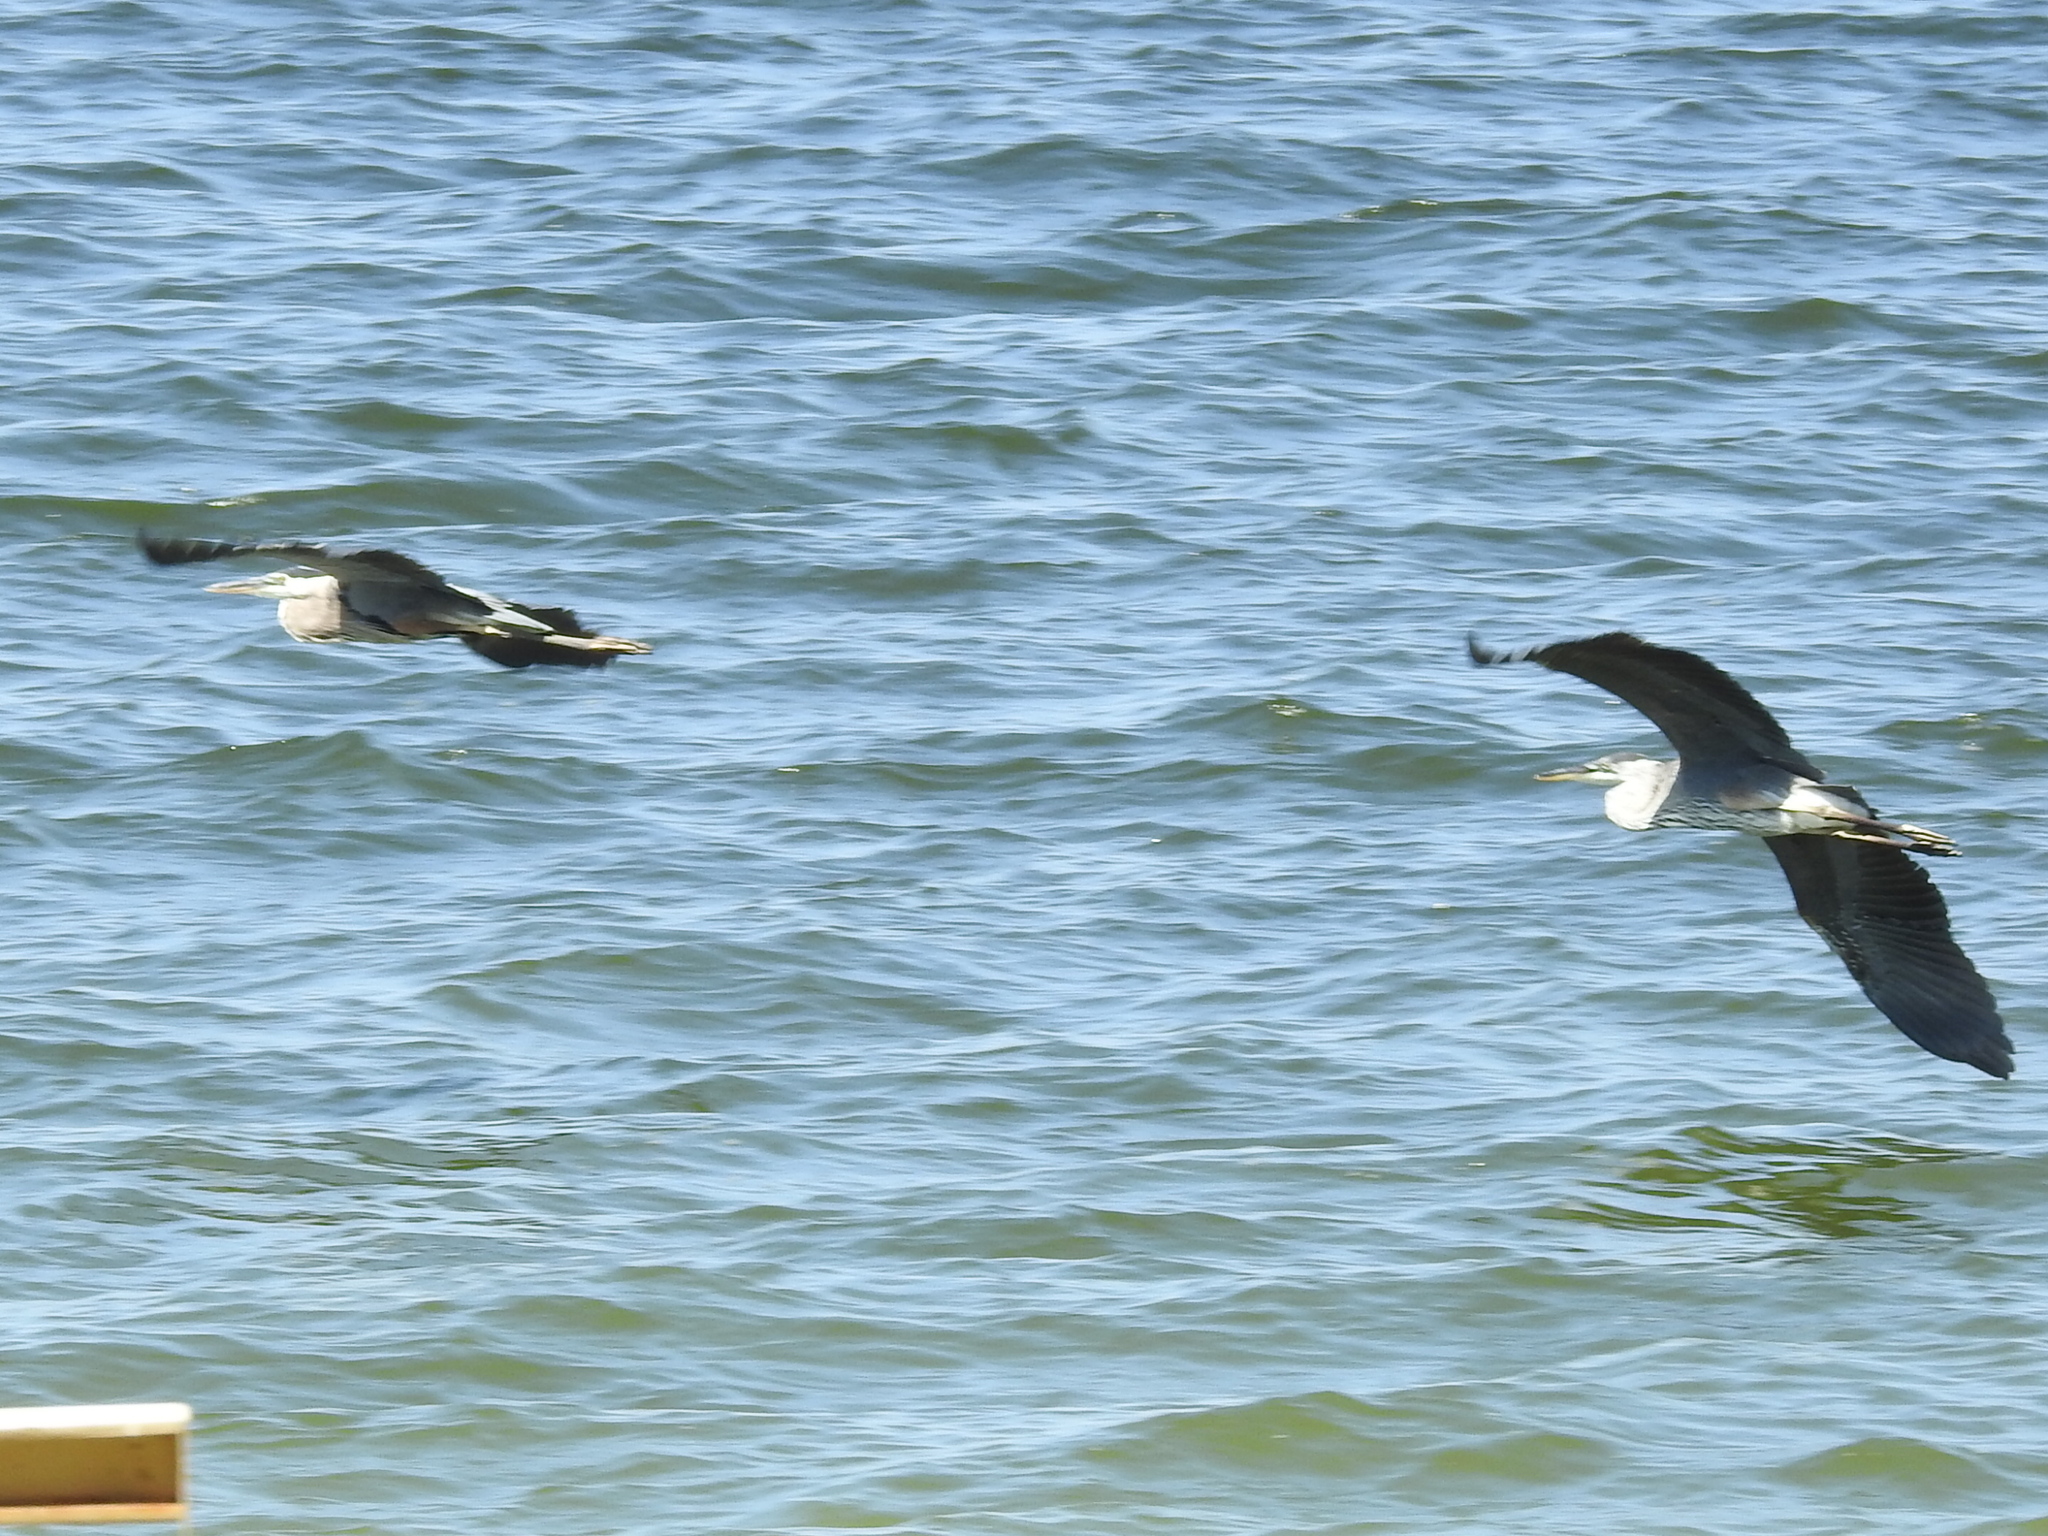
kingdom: Animalia
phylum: Chordata
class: Aves
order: Pelecaniformes
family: Ardeidae
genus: Ardea
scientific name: Ardea herodias
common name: Great blue heron
